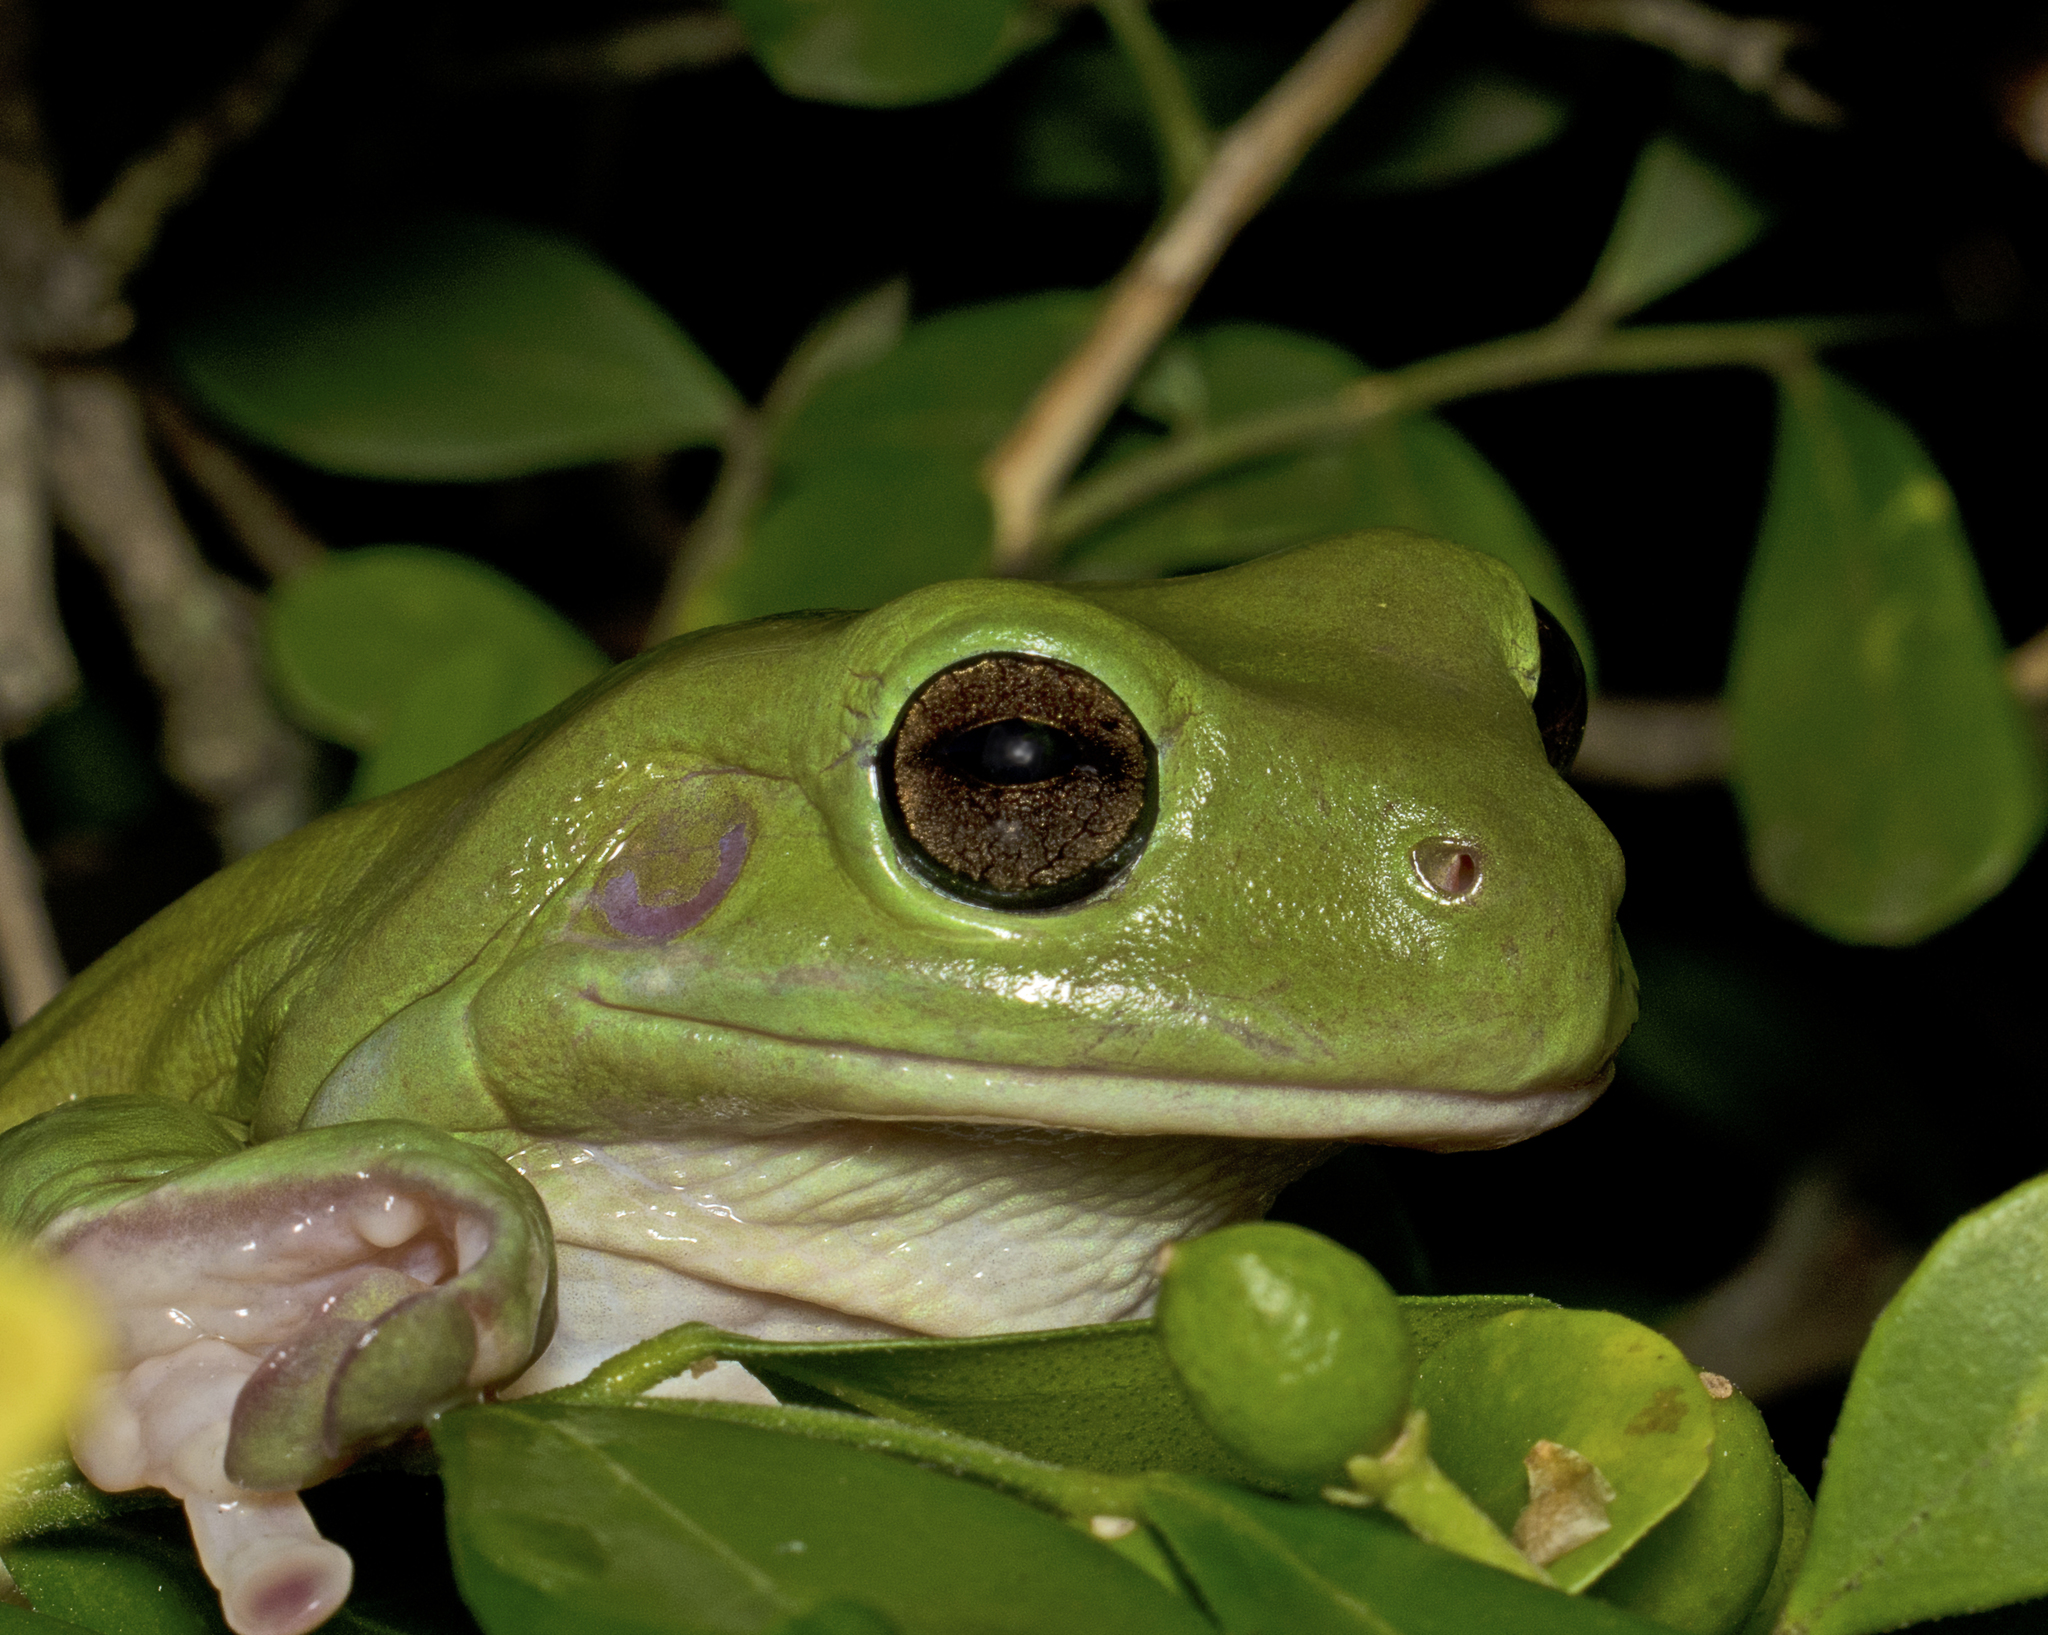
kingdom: Animalia
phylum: Chordata
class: Amphibia
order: Anura
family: Pelodryadidae
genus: Ranoidea
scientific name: Ranoidea caerulea
